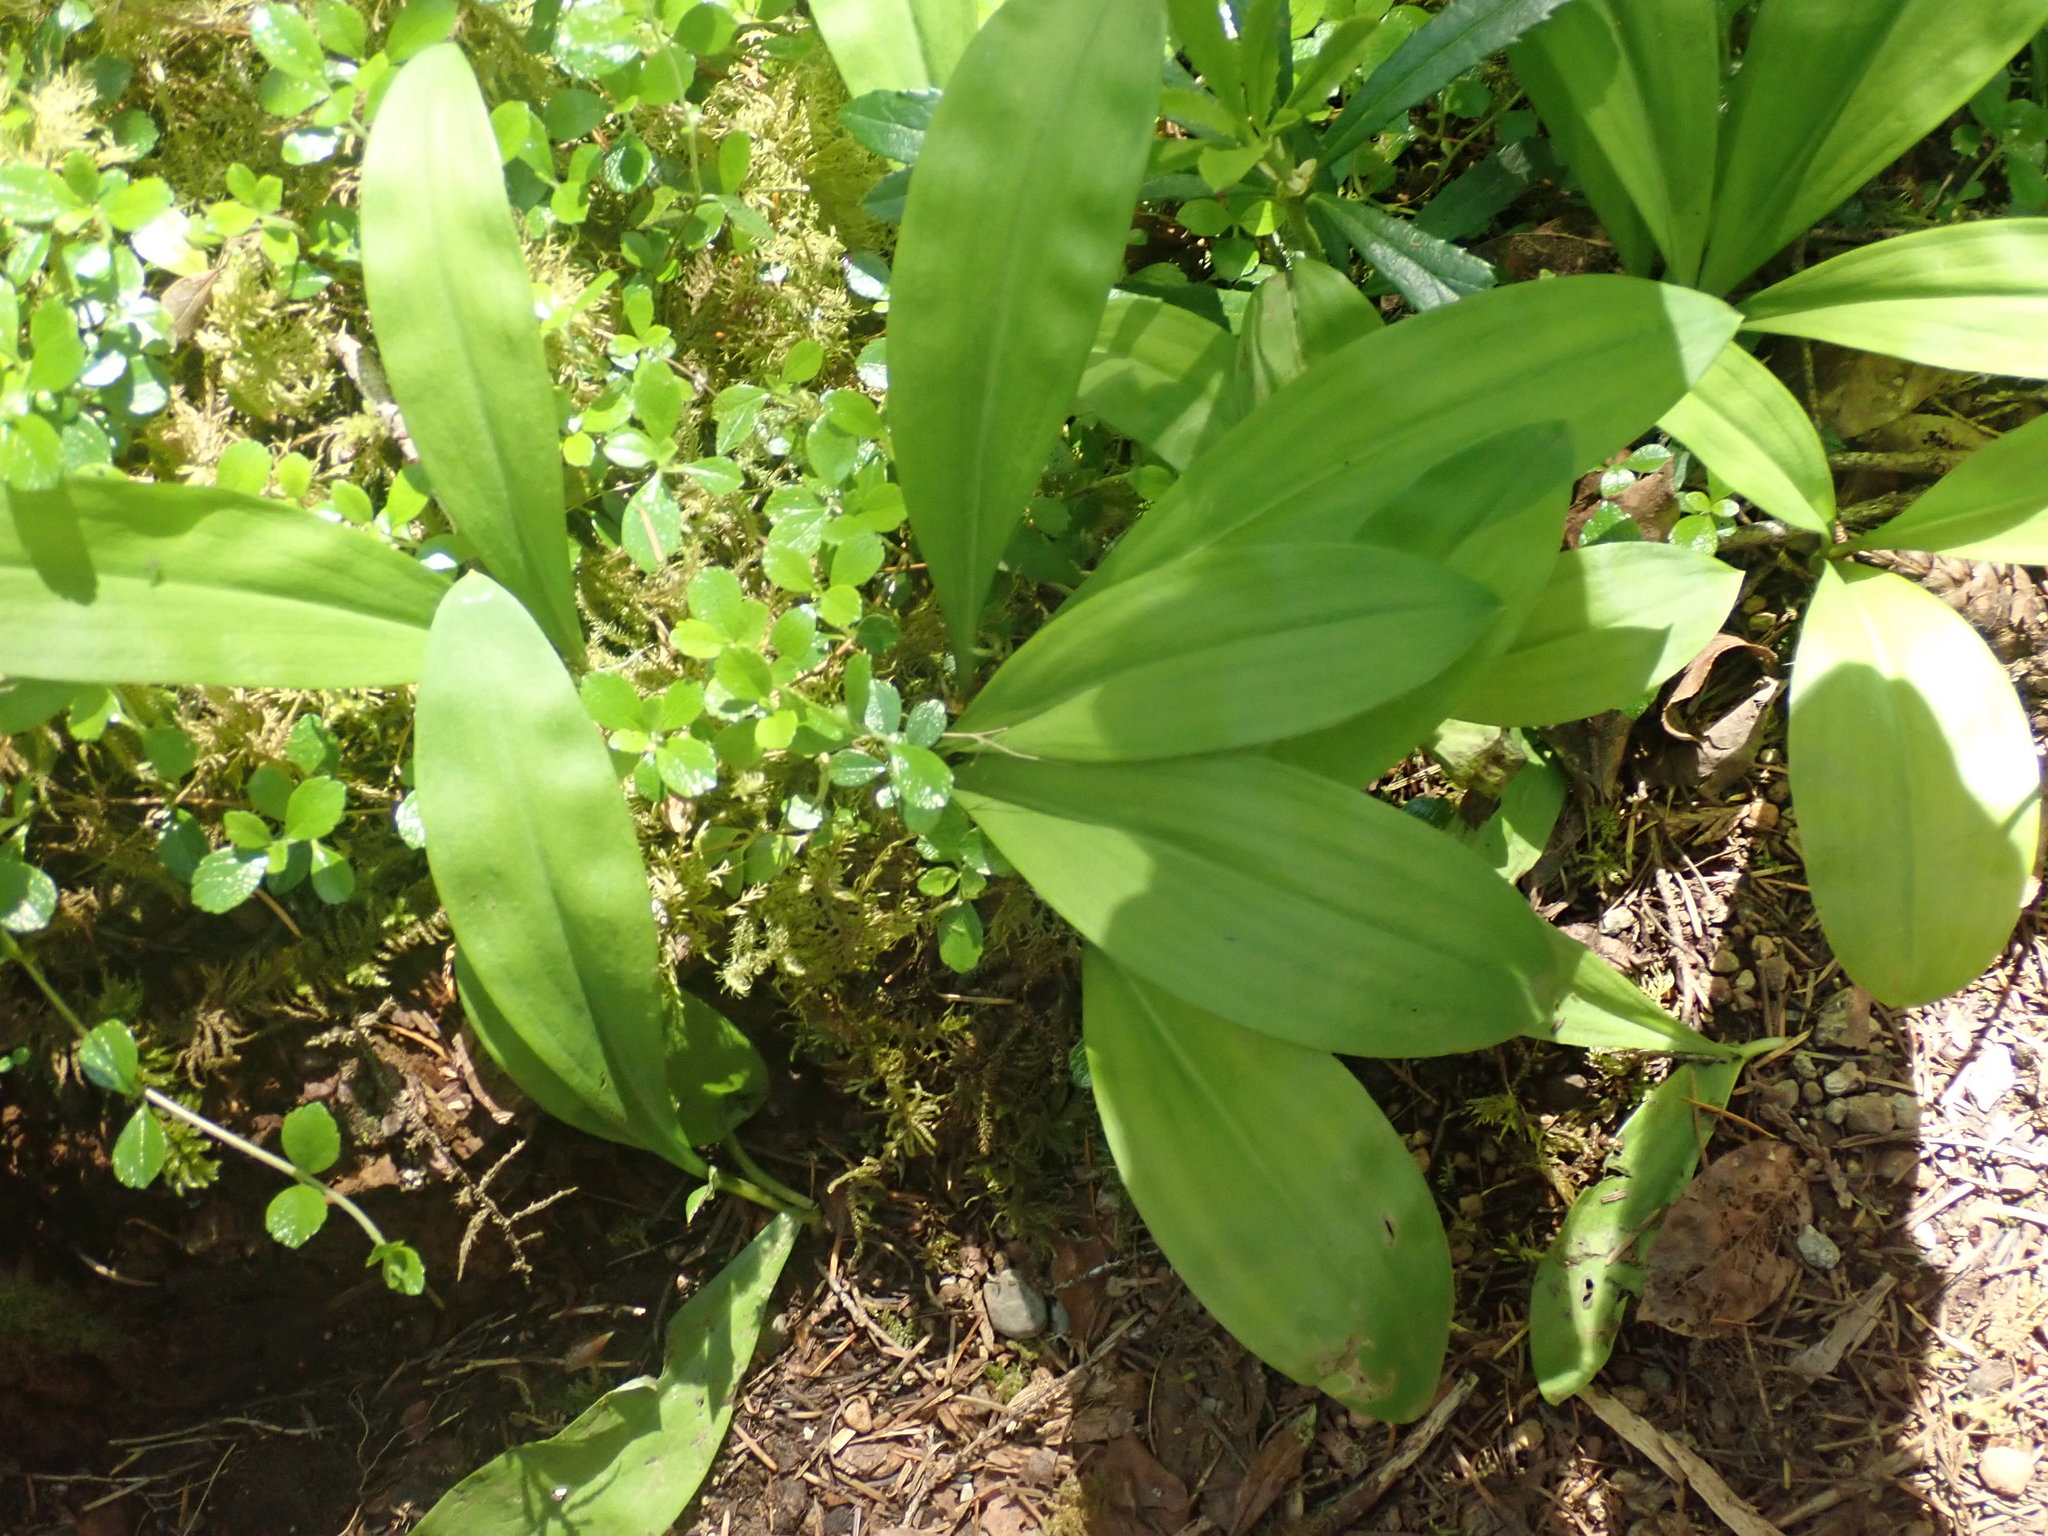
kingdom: Plantae
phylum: Tracheophyta
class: Liliopsida
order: Liliales
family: Liliaceae
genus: Clintonia
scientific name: Clintonia uniflora
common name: Queen's cup
